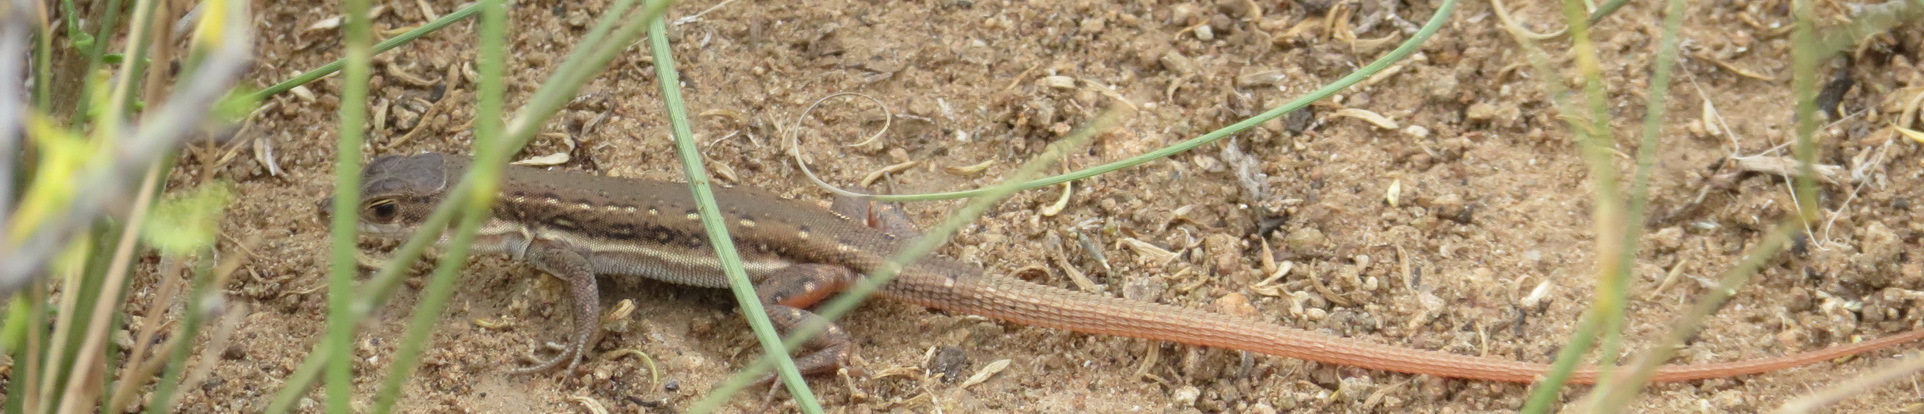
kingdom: Animalia
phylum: Chordata
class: Squamata
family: Lacertidae
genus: Pedioplanis
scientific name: Pedioplanis lineoocellata
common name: Spotted sand lizard
